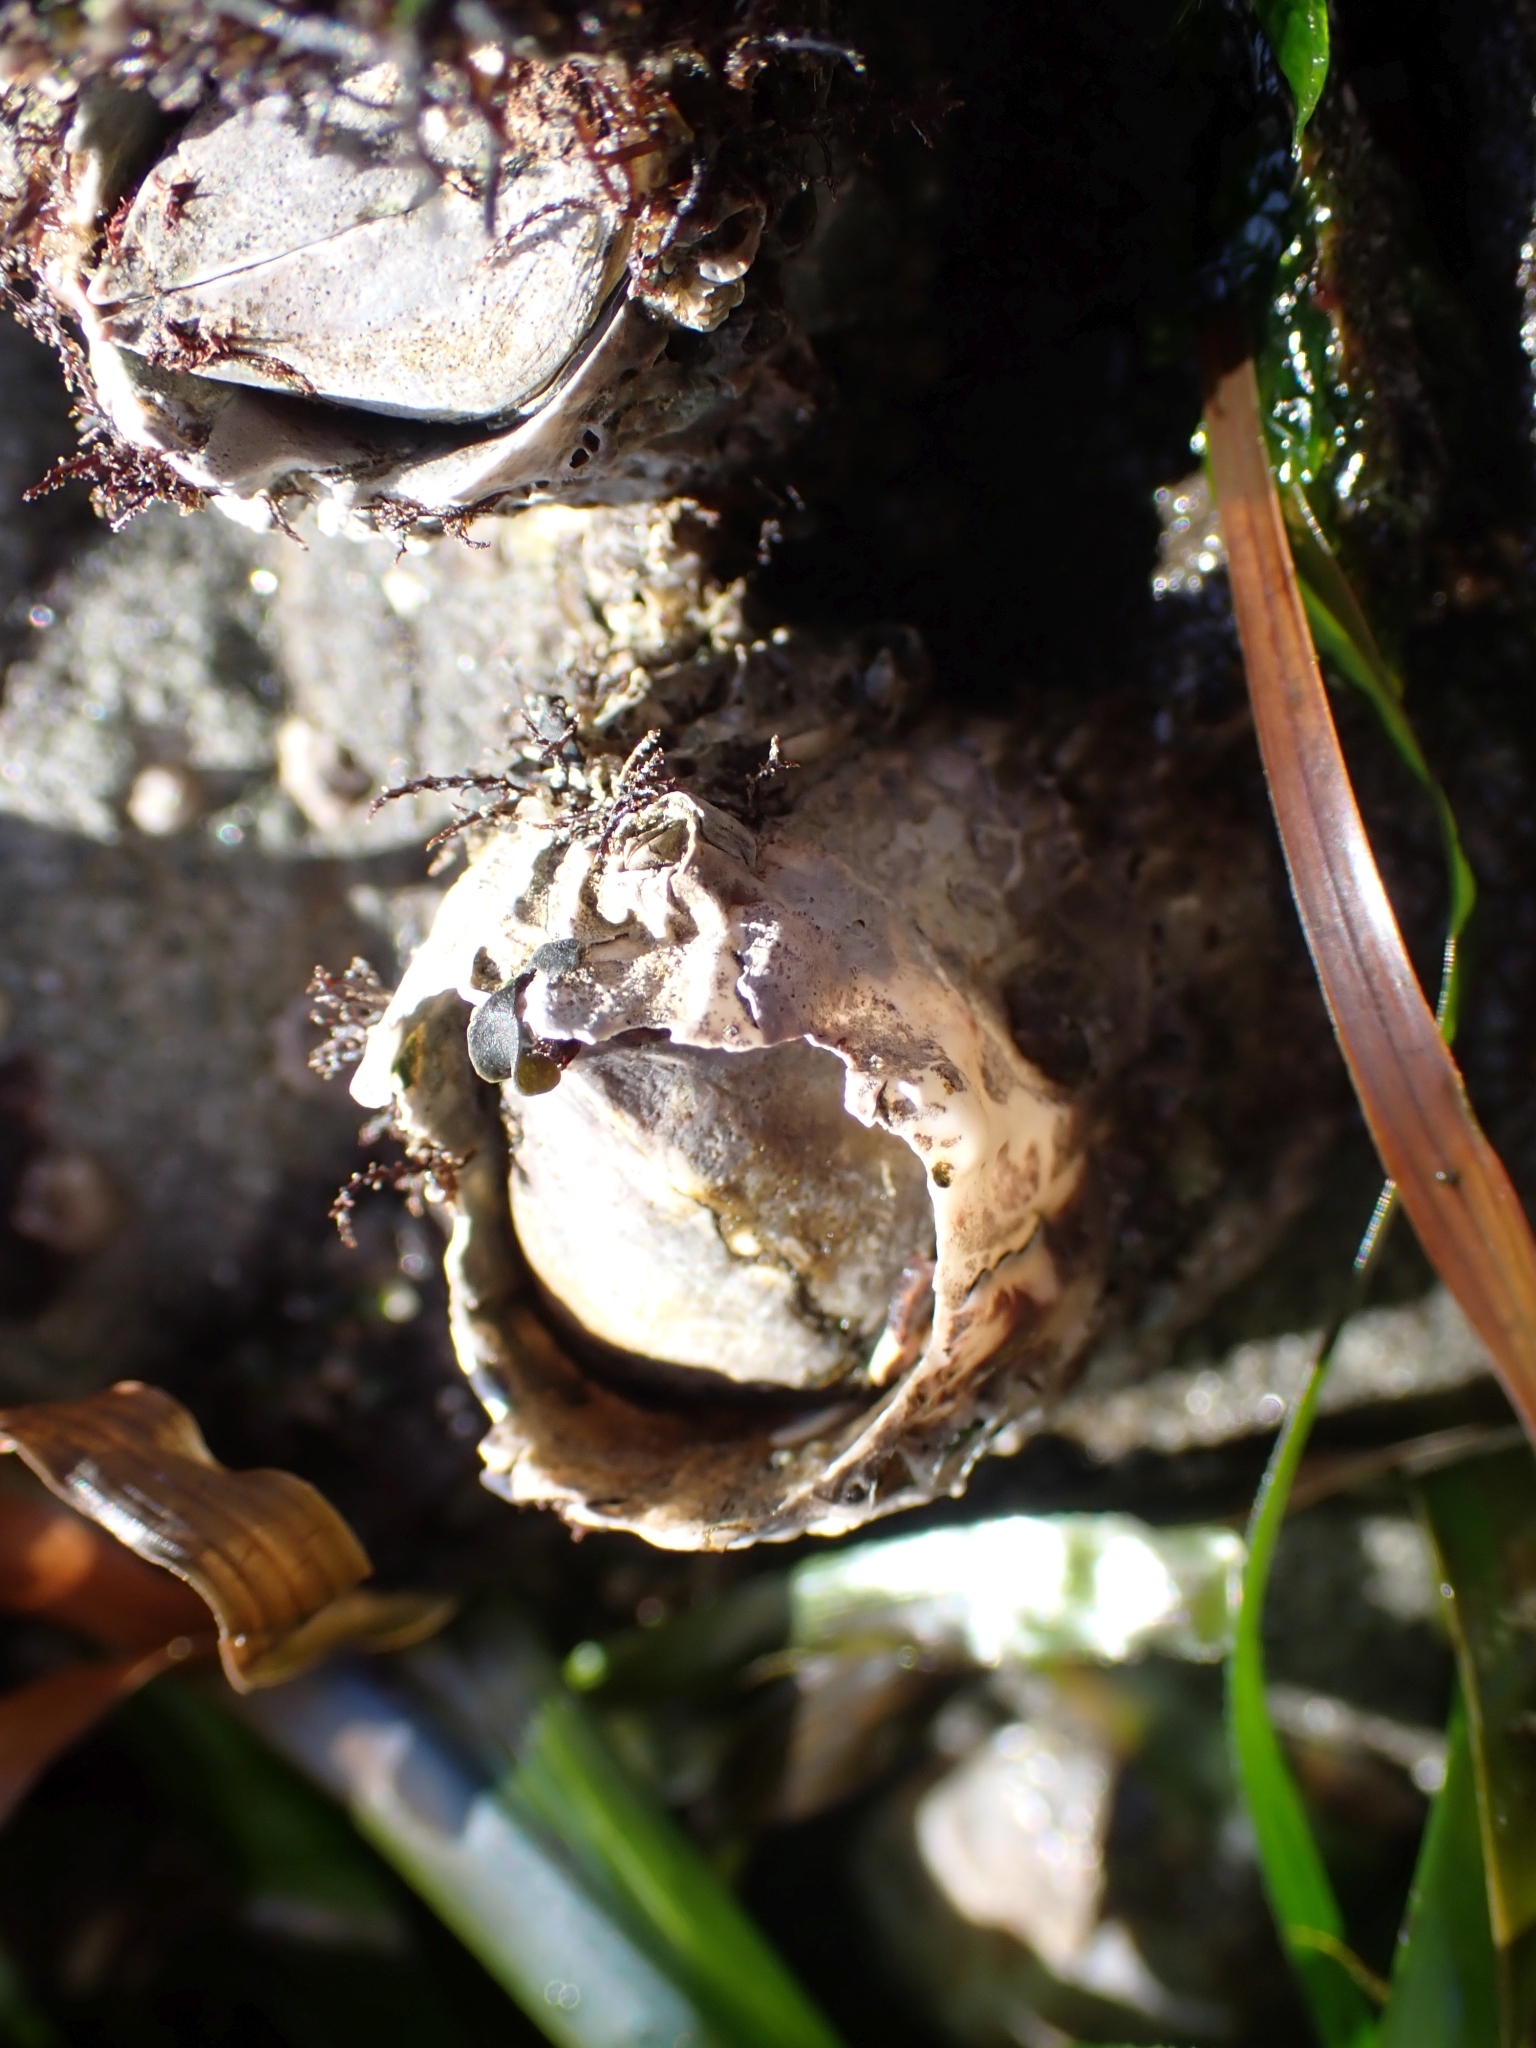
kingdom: Animalia
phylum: Arthropoda
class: Maxillopoda
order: Sessilia
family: Archaeobalanidae
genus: Semibalanus
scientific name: Semibalanus cariosus
